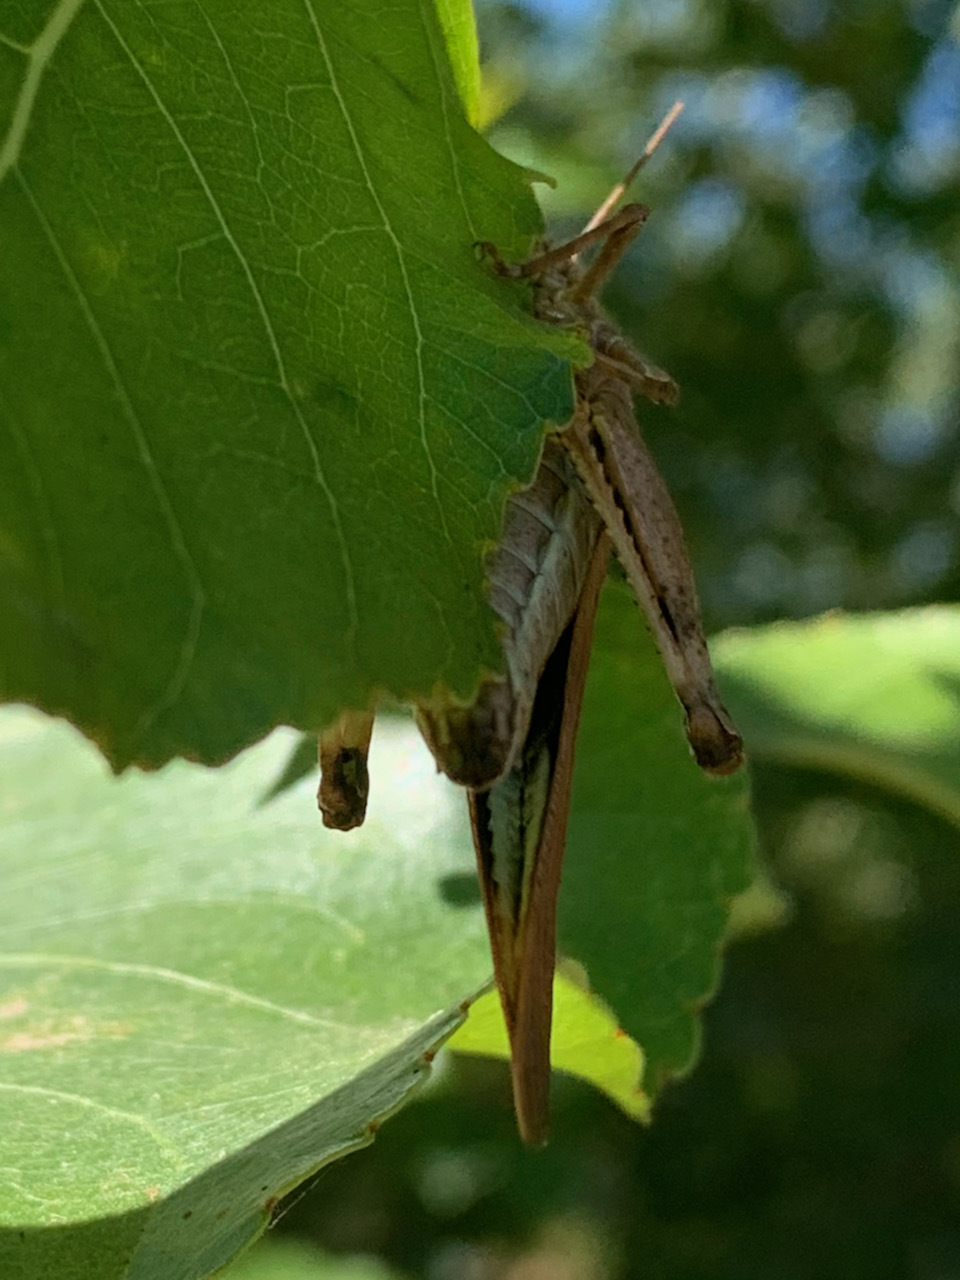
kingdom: Animalia
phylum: Arthropoda
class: Insecta
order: Orthoptera
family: Acrididae
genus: Dissosteira
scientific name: Dissosteira carolina
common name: Carolina grasshopper
